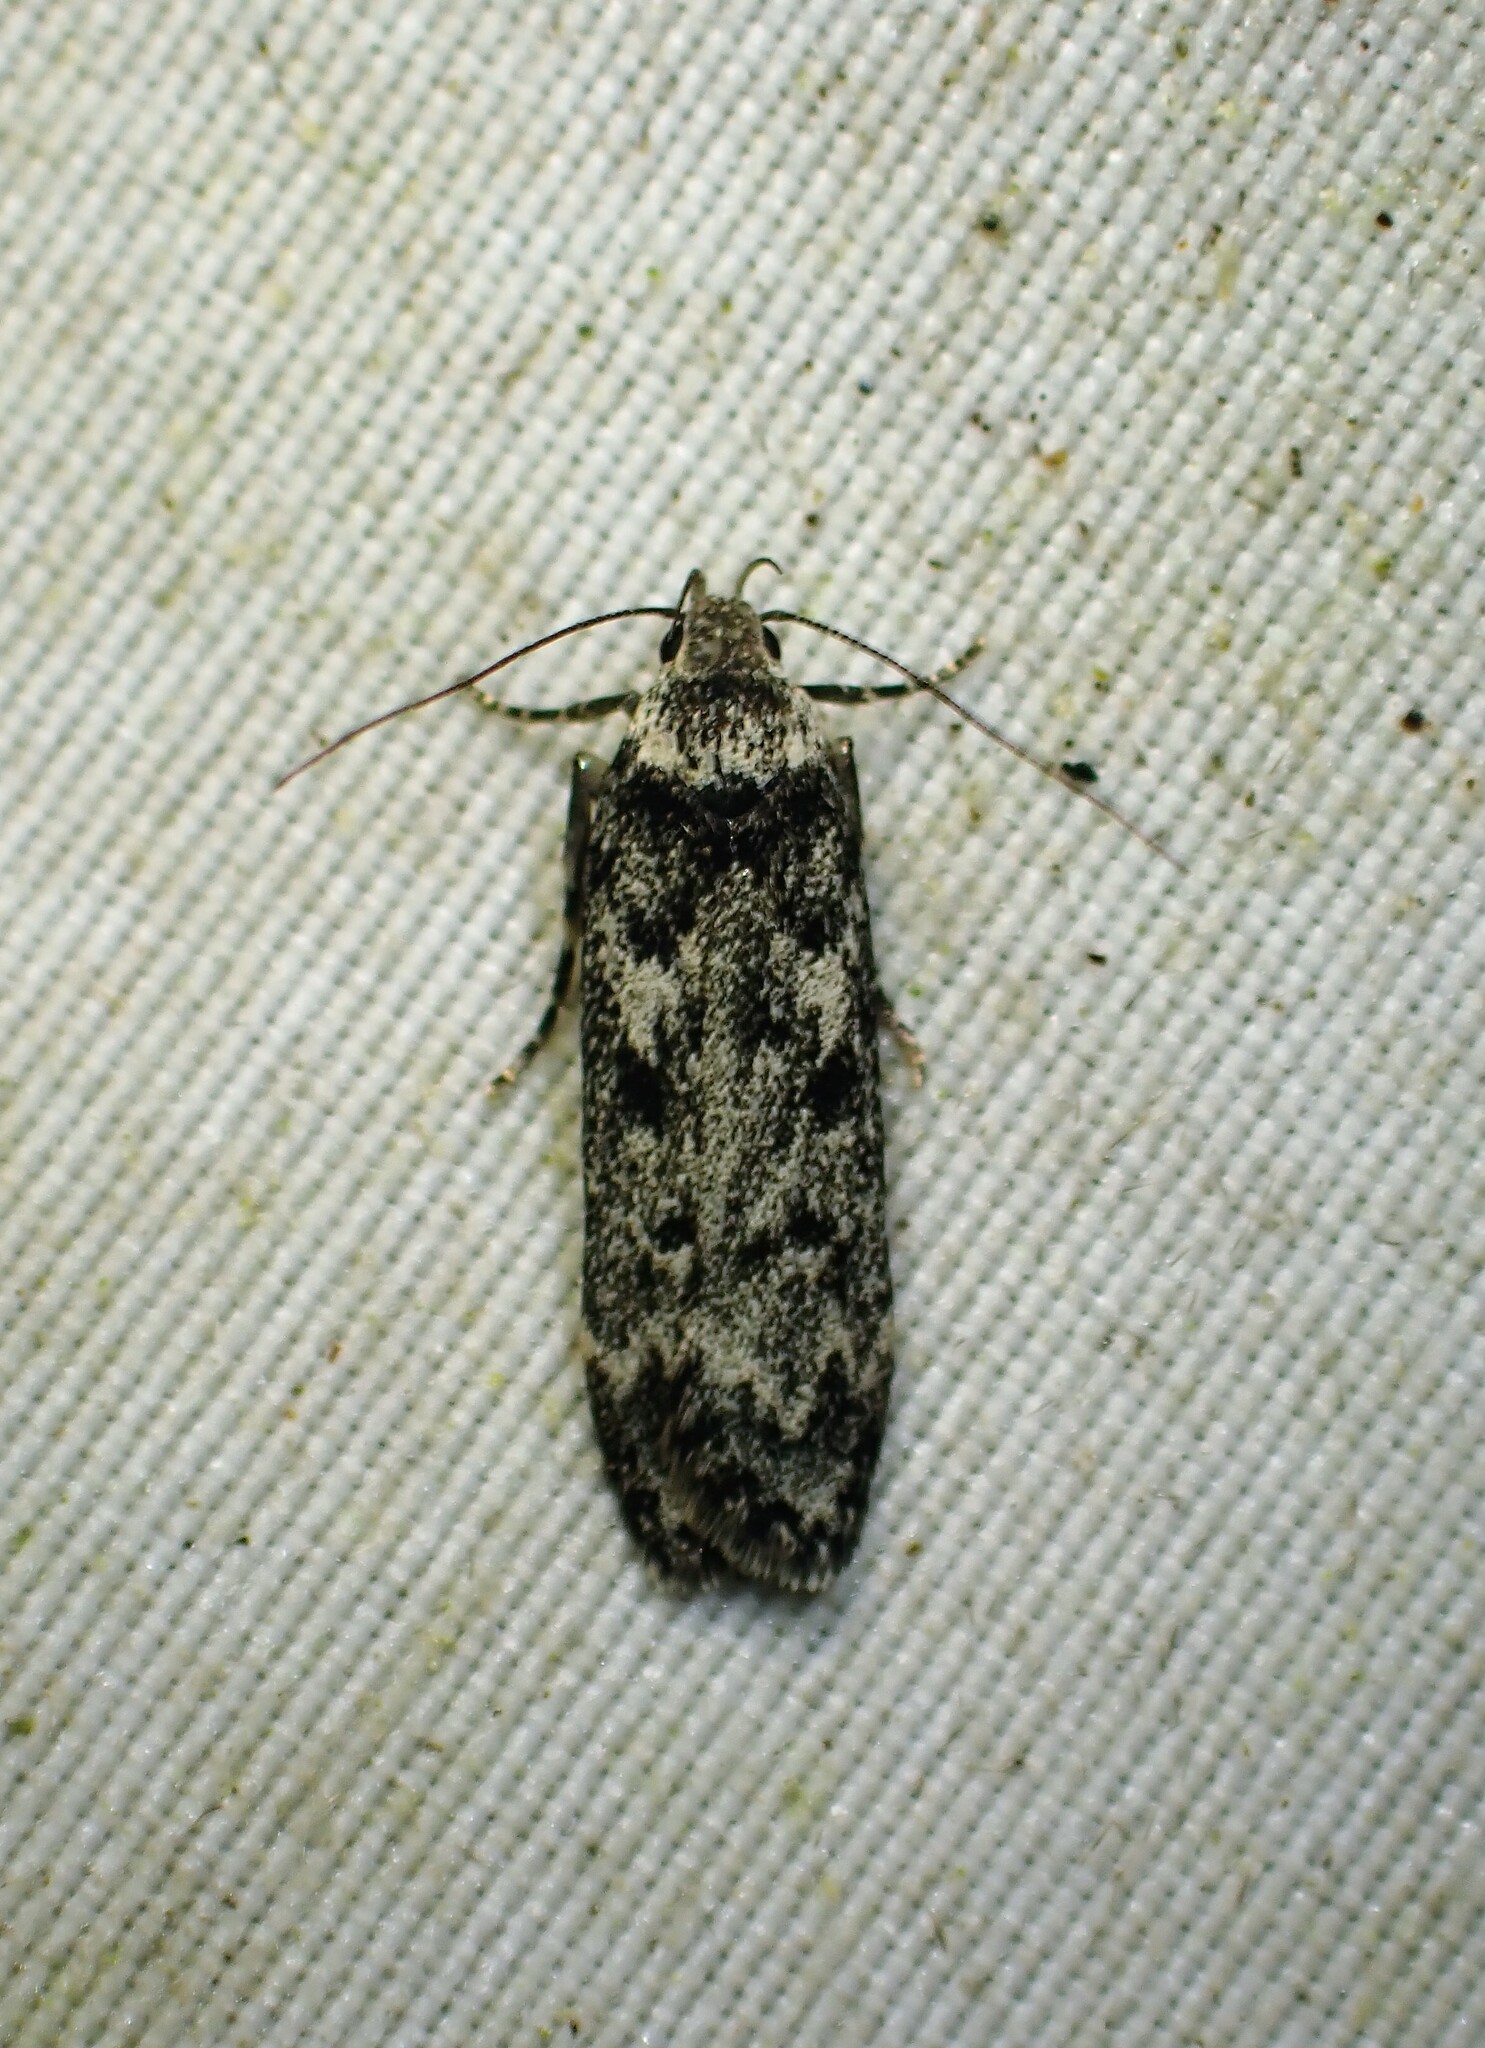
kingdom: Animalia
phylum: Arthropoda
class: Insecta
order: Lepidoptera
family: Gelechiidae
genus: Anacampsis
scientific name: Anacampsis niveopulvella
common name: Pale-headed aspen leafroller moth
